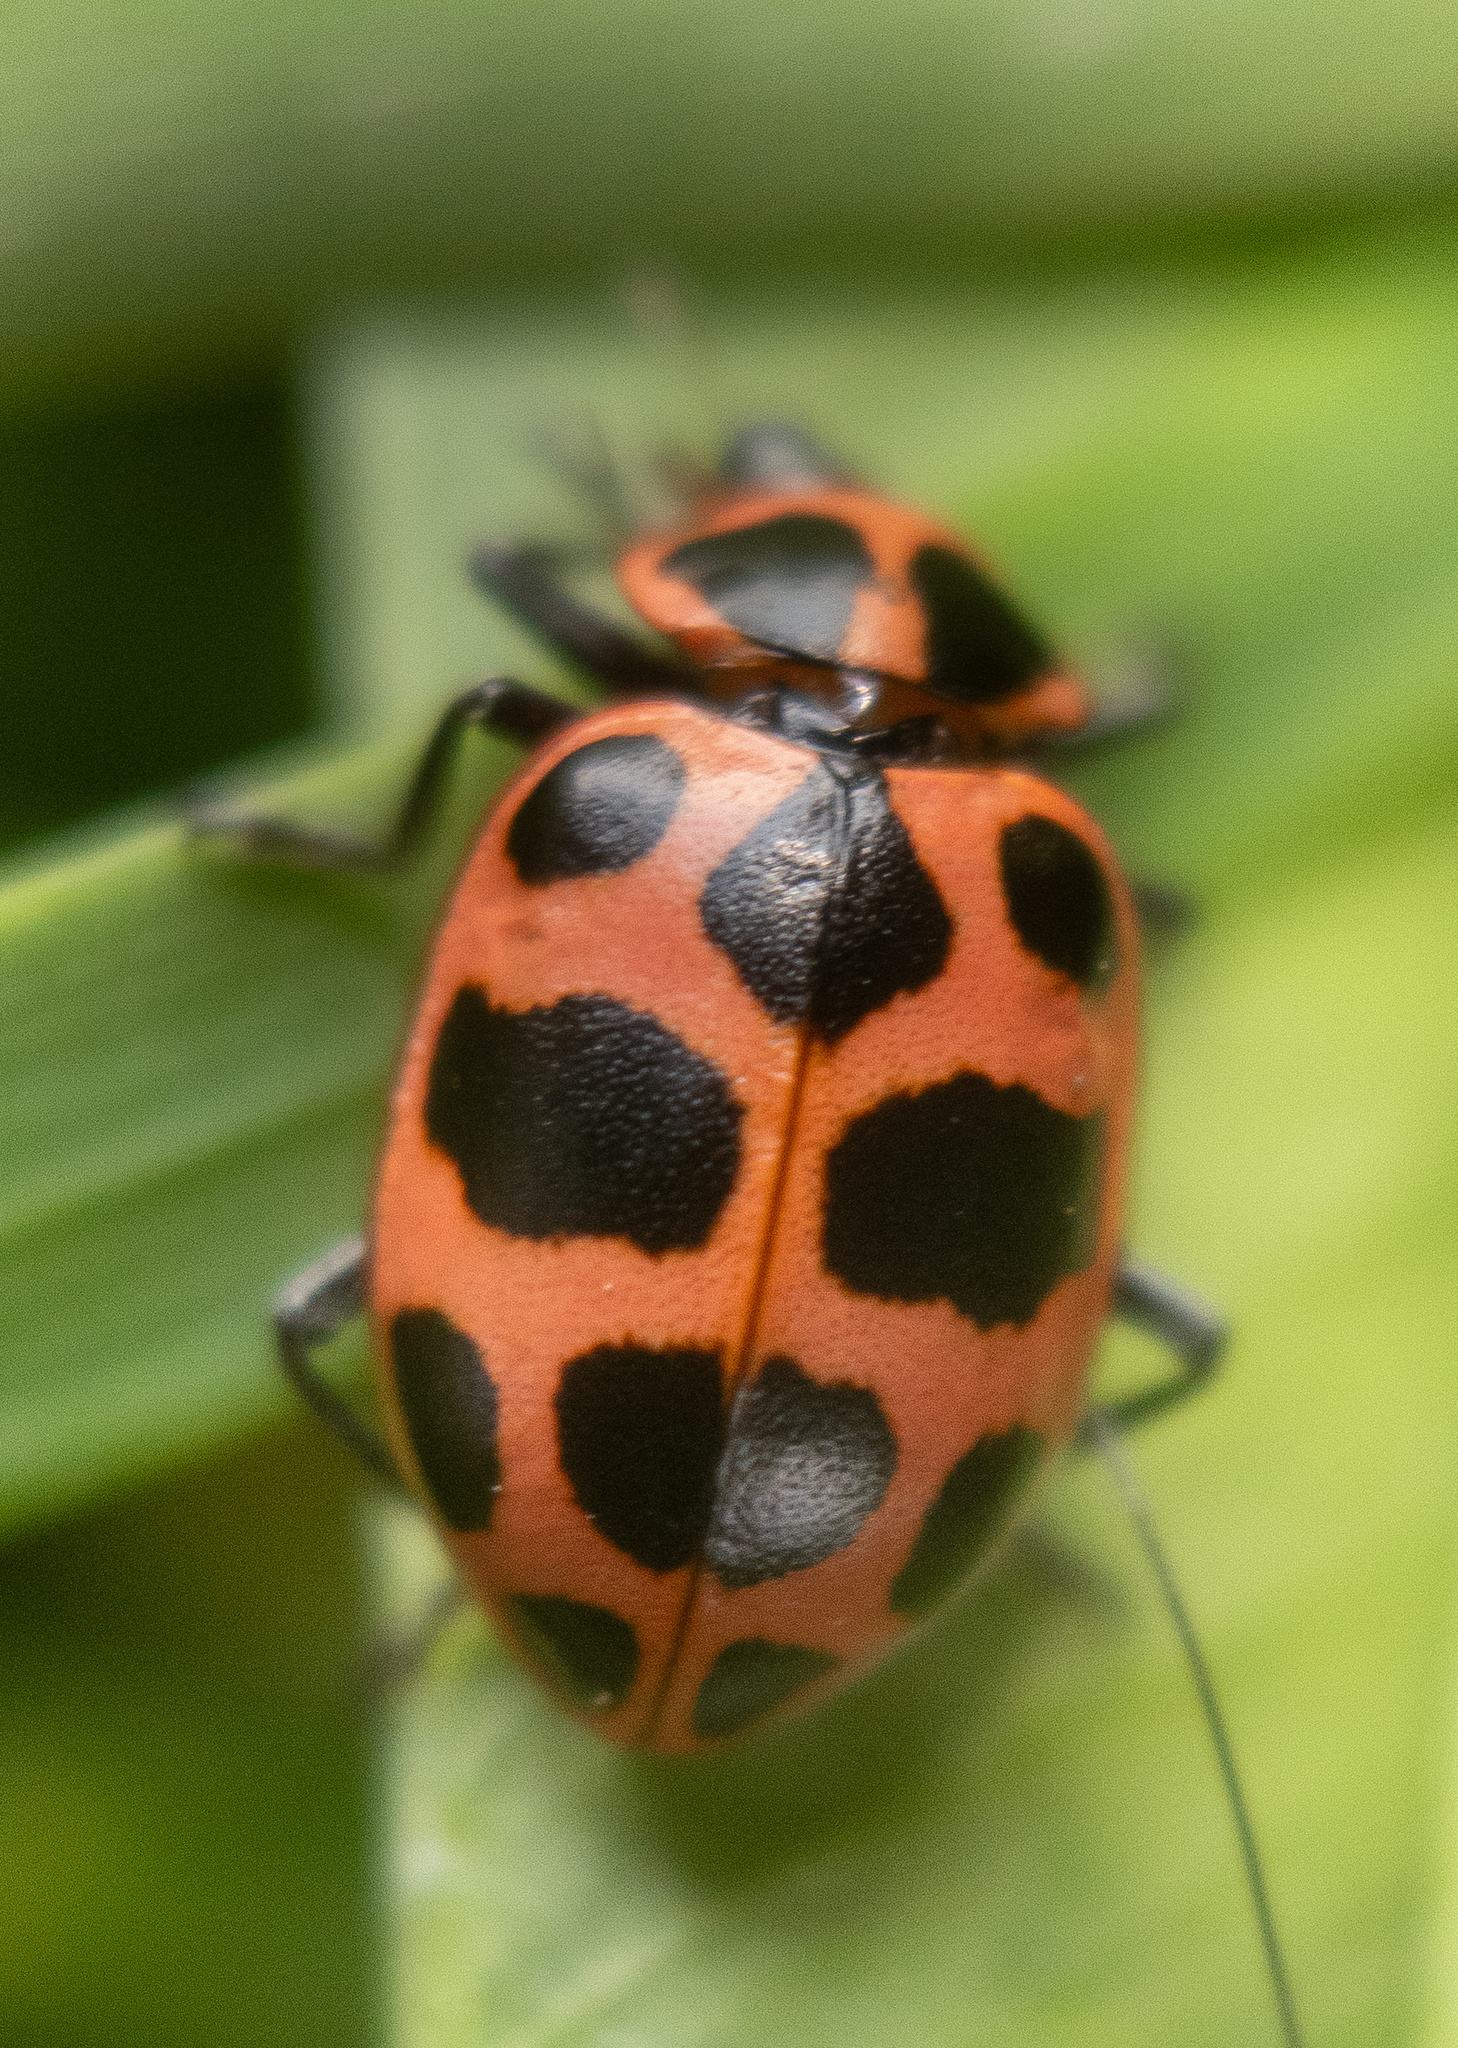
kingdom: Animalia
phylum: Arthropoda
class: Insecta
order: Coleoptera
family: Coccinellidae
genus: Coleomegilla
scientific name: Coleomegilla maculata
